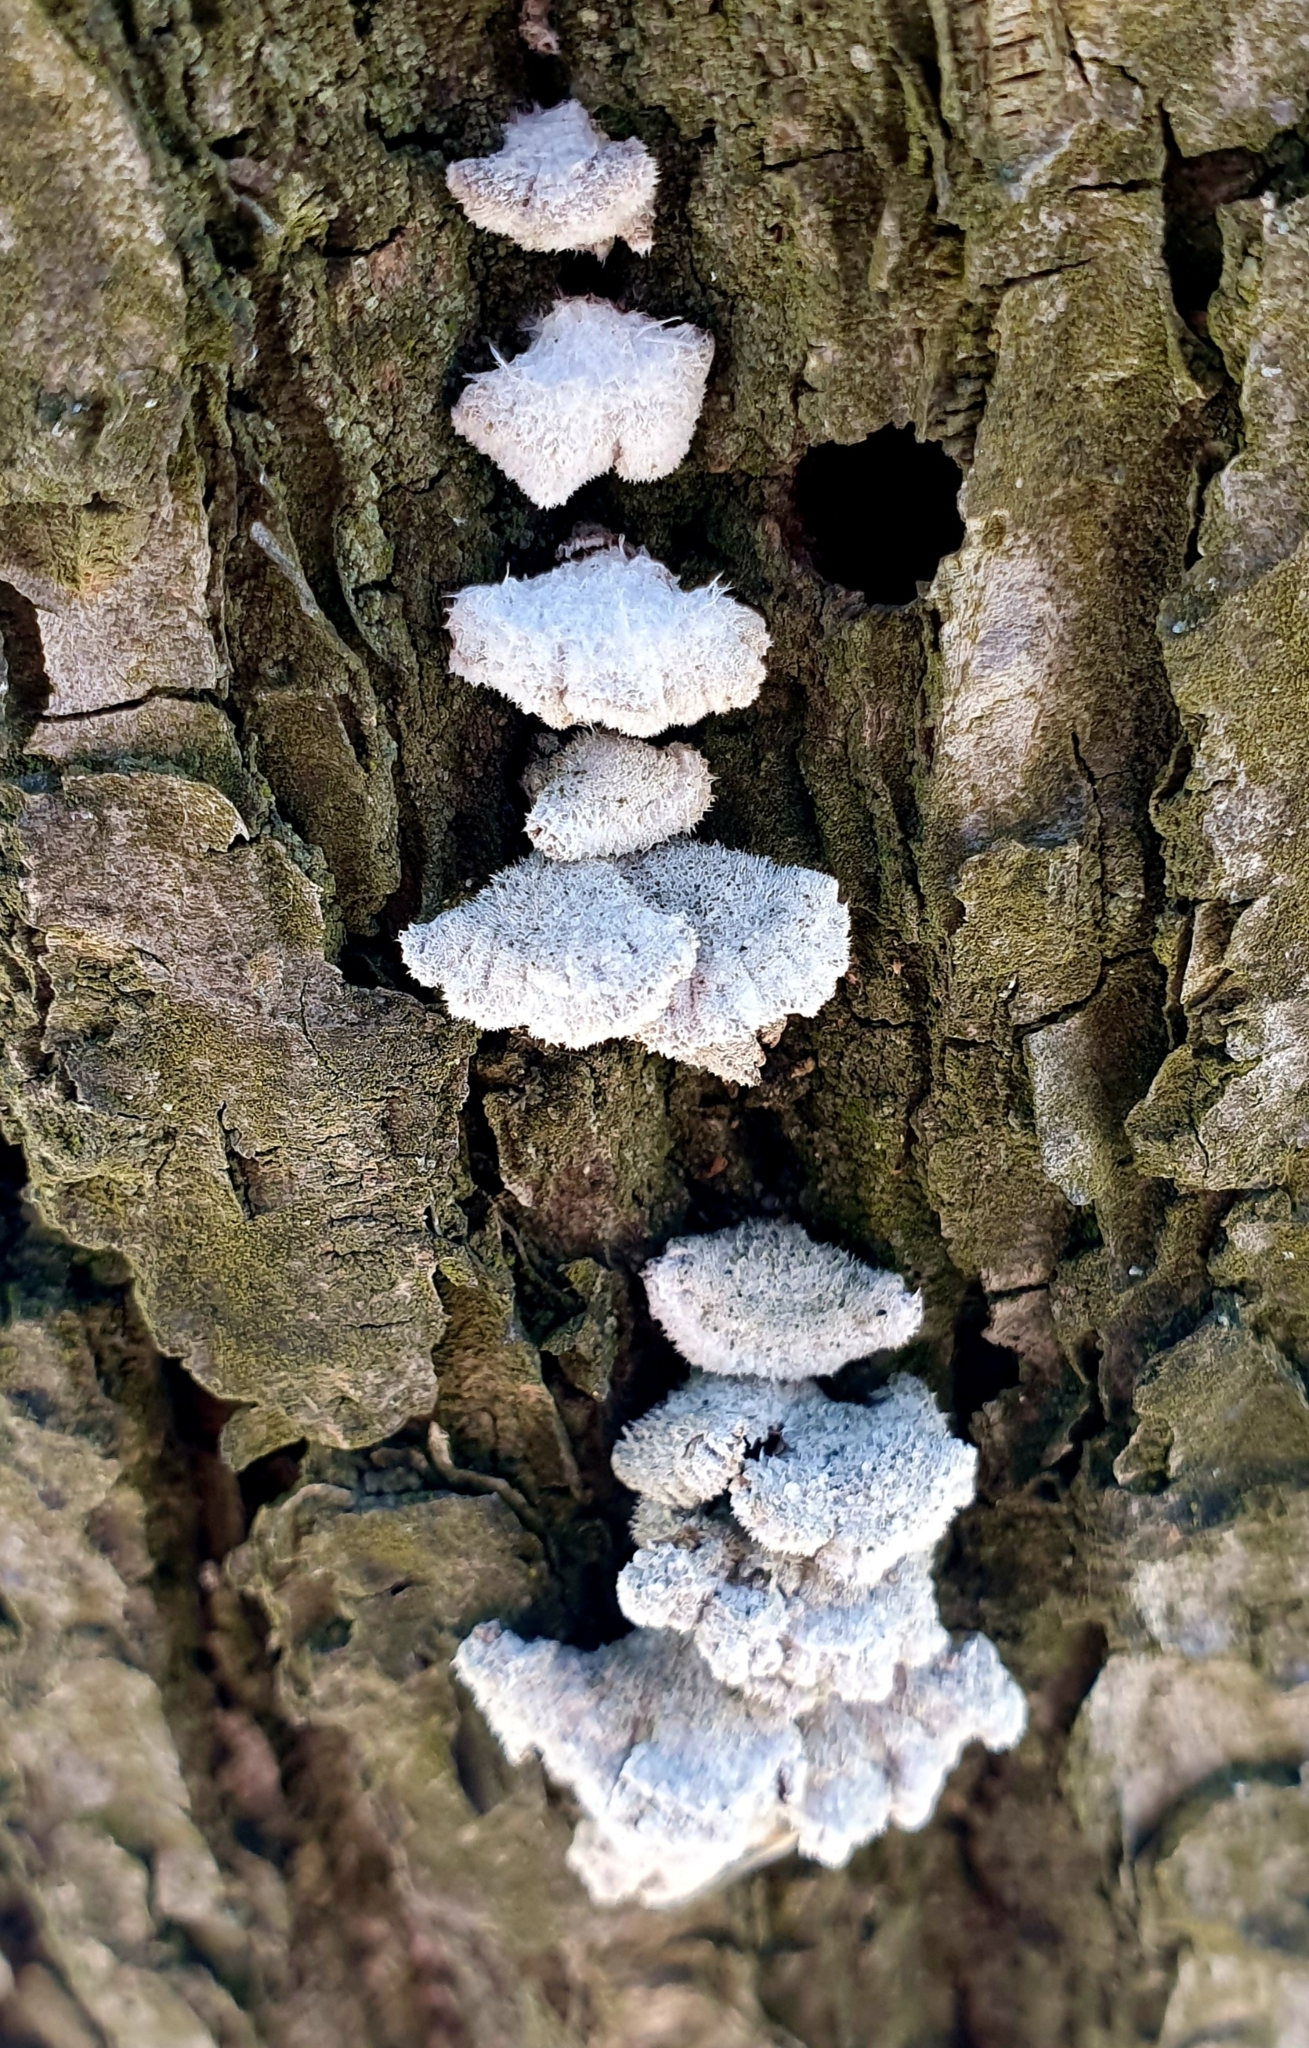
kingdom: Fungi
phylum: Basidiomycota
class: Agaricomycetes
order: Agaricales
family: Schizophyllaceae
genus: Schizophyllum
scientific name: Schizophyllum commune
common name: Common porecrust
